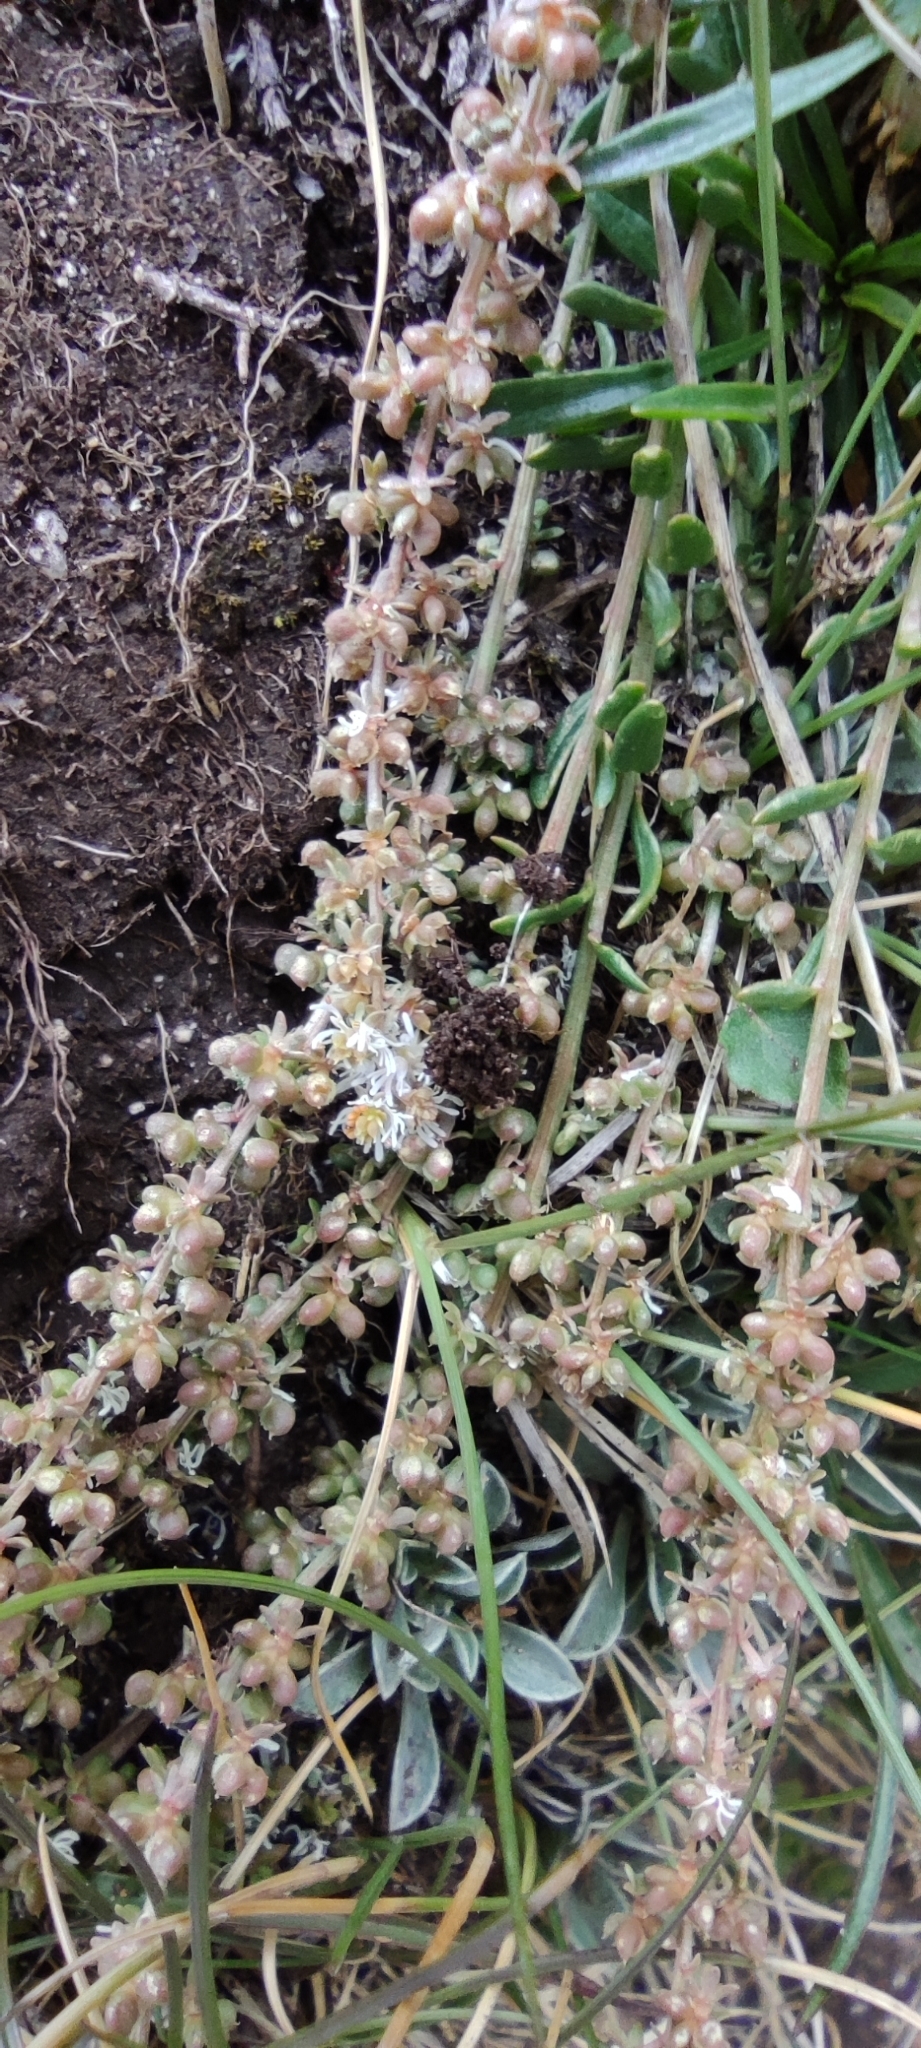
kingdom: Plantae
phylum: Tracheophyta
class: Magnoliopsida
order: Brassicales
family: Resedaceae
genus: Sesamoides
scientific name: Sesamoides interrupta
